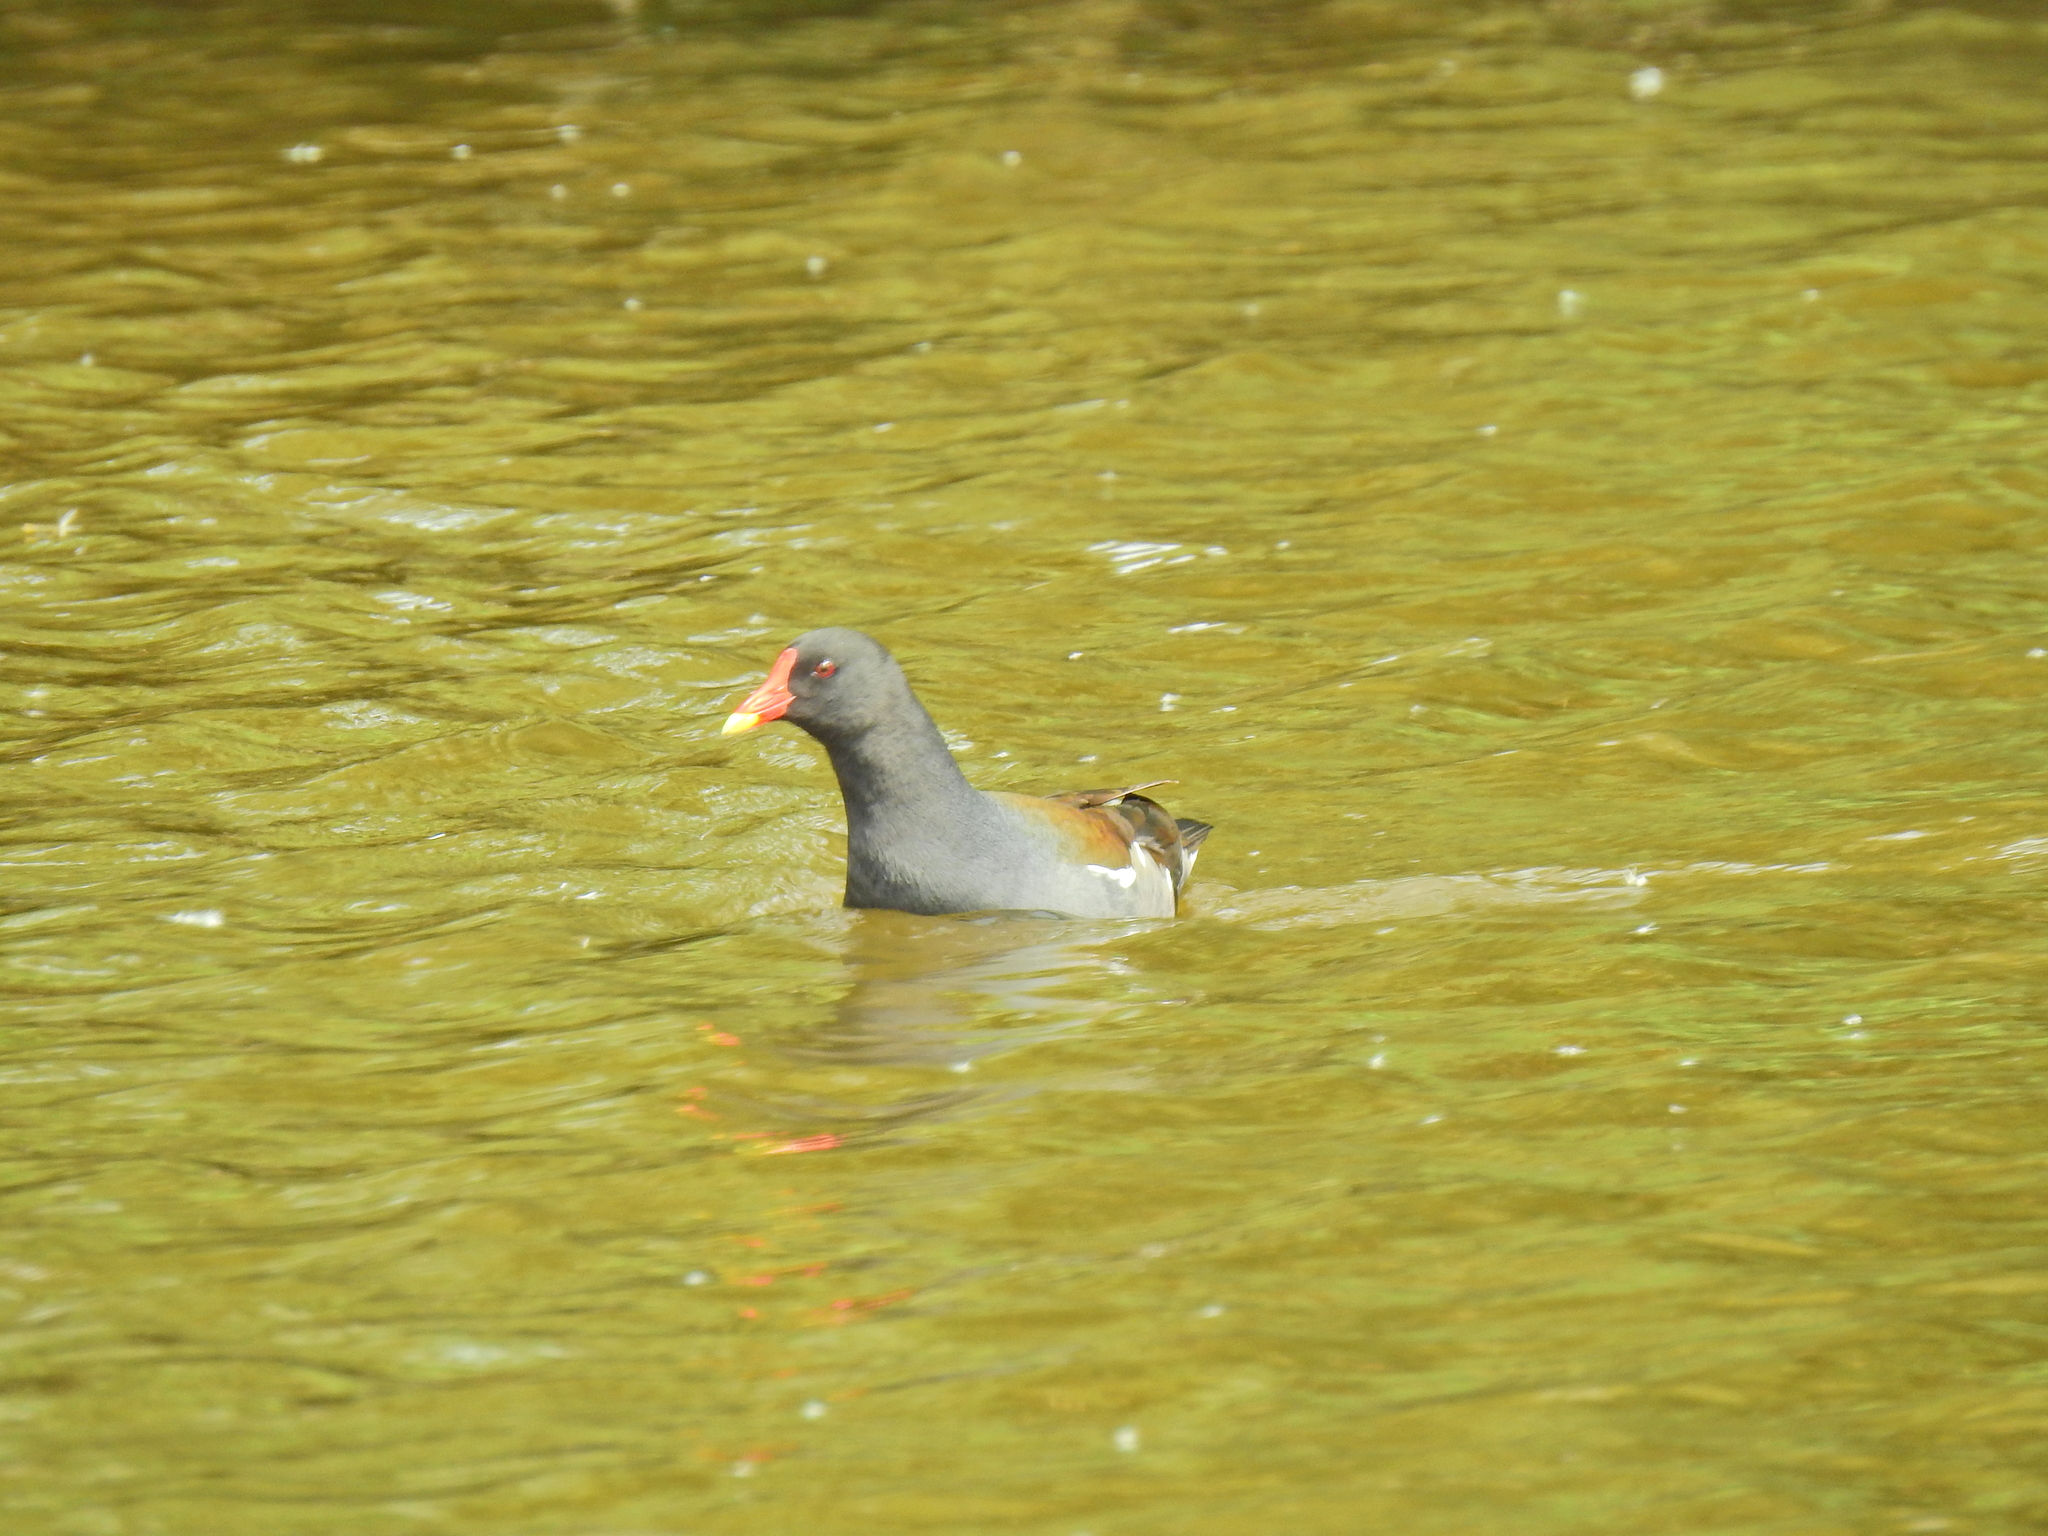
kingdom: Animalia
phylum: Chordata
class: Aves
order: Gruiformes
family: Rallidae
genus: Gallinula
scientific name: Gallinula chloropus
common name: Common moorhen
